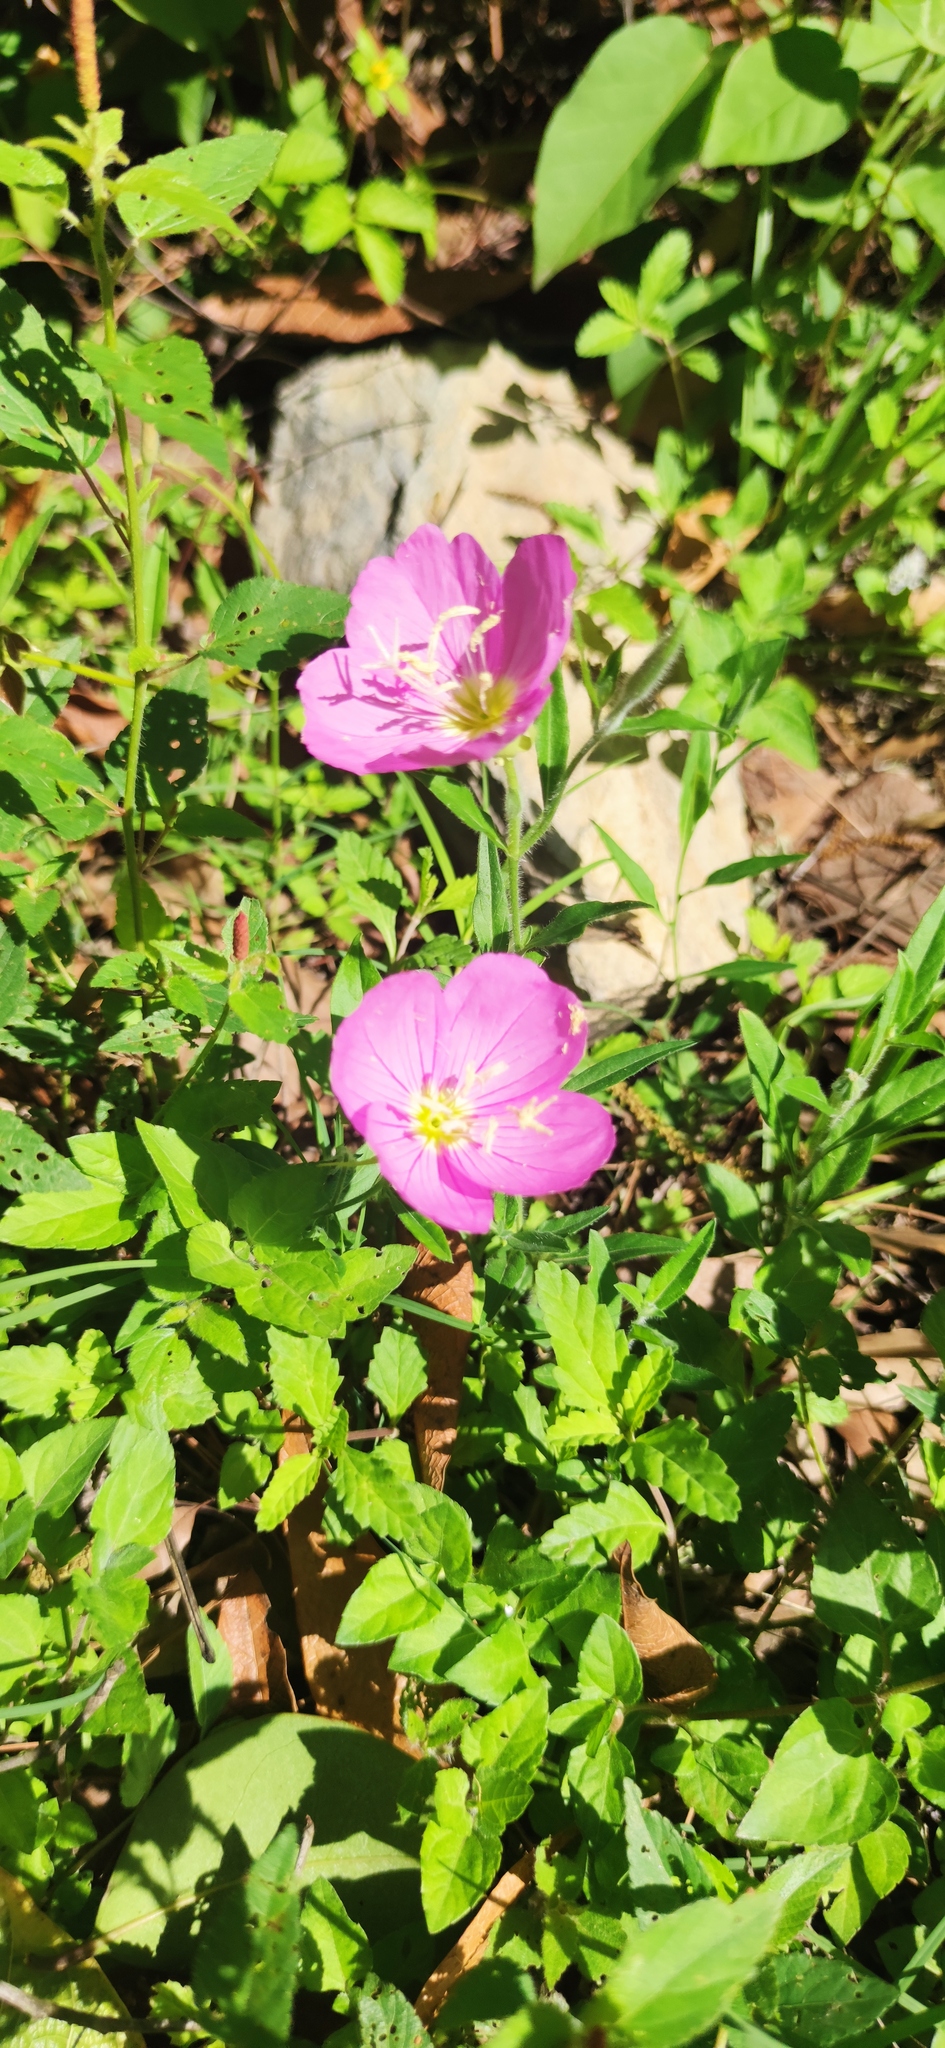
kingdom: Plantae
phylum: Tracheophyta
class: Magnoliopsida
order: Myrtales
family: Onagraceae
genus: Oenothera
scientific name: Oenothera speciosa
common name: White evening-primrose
